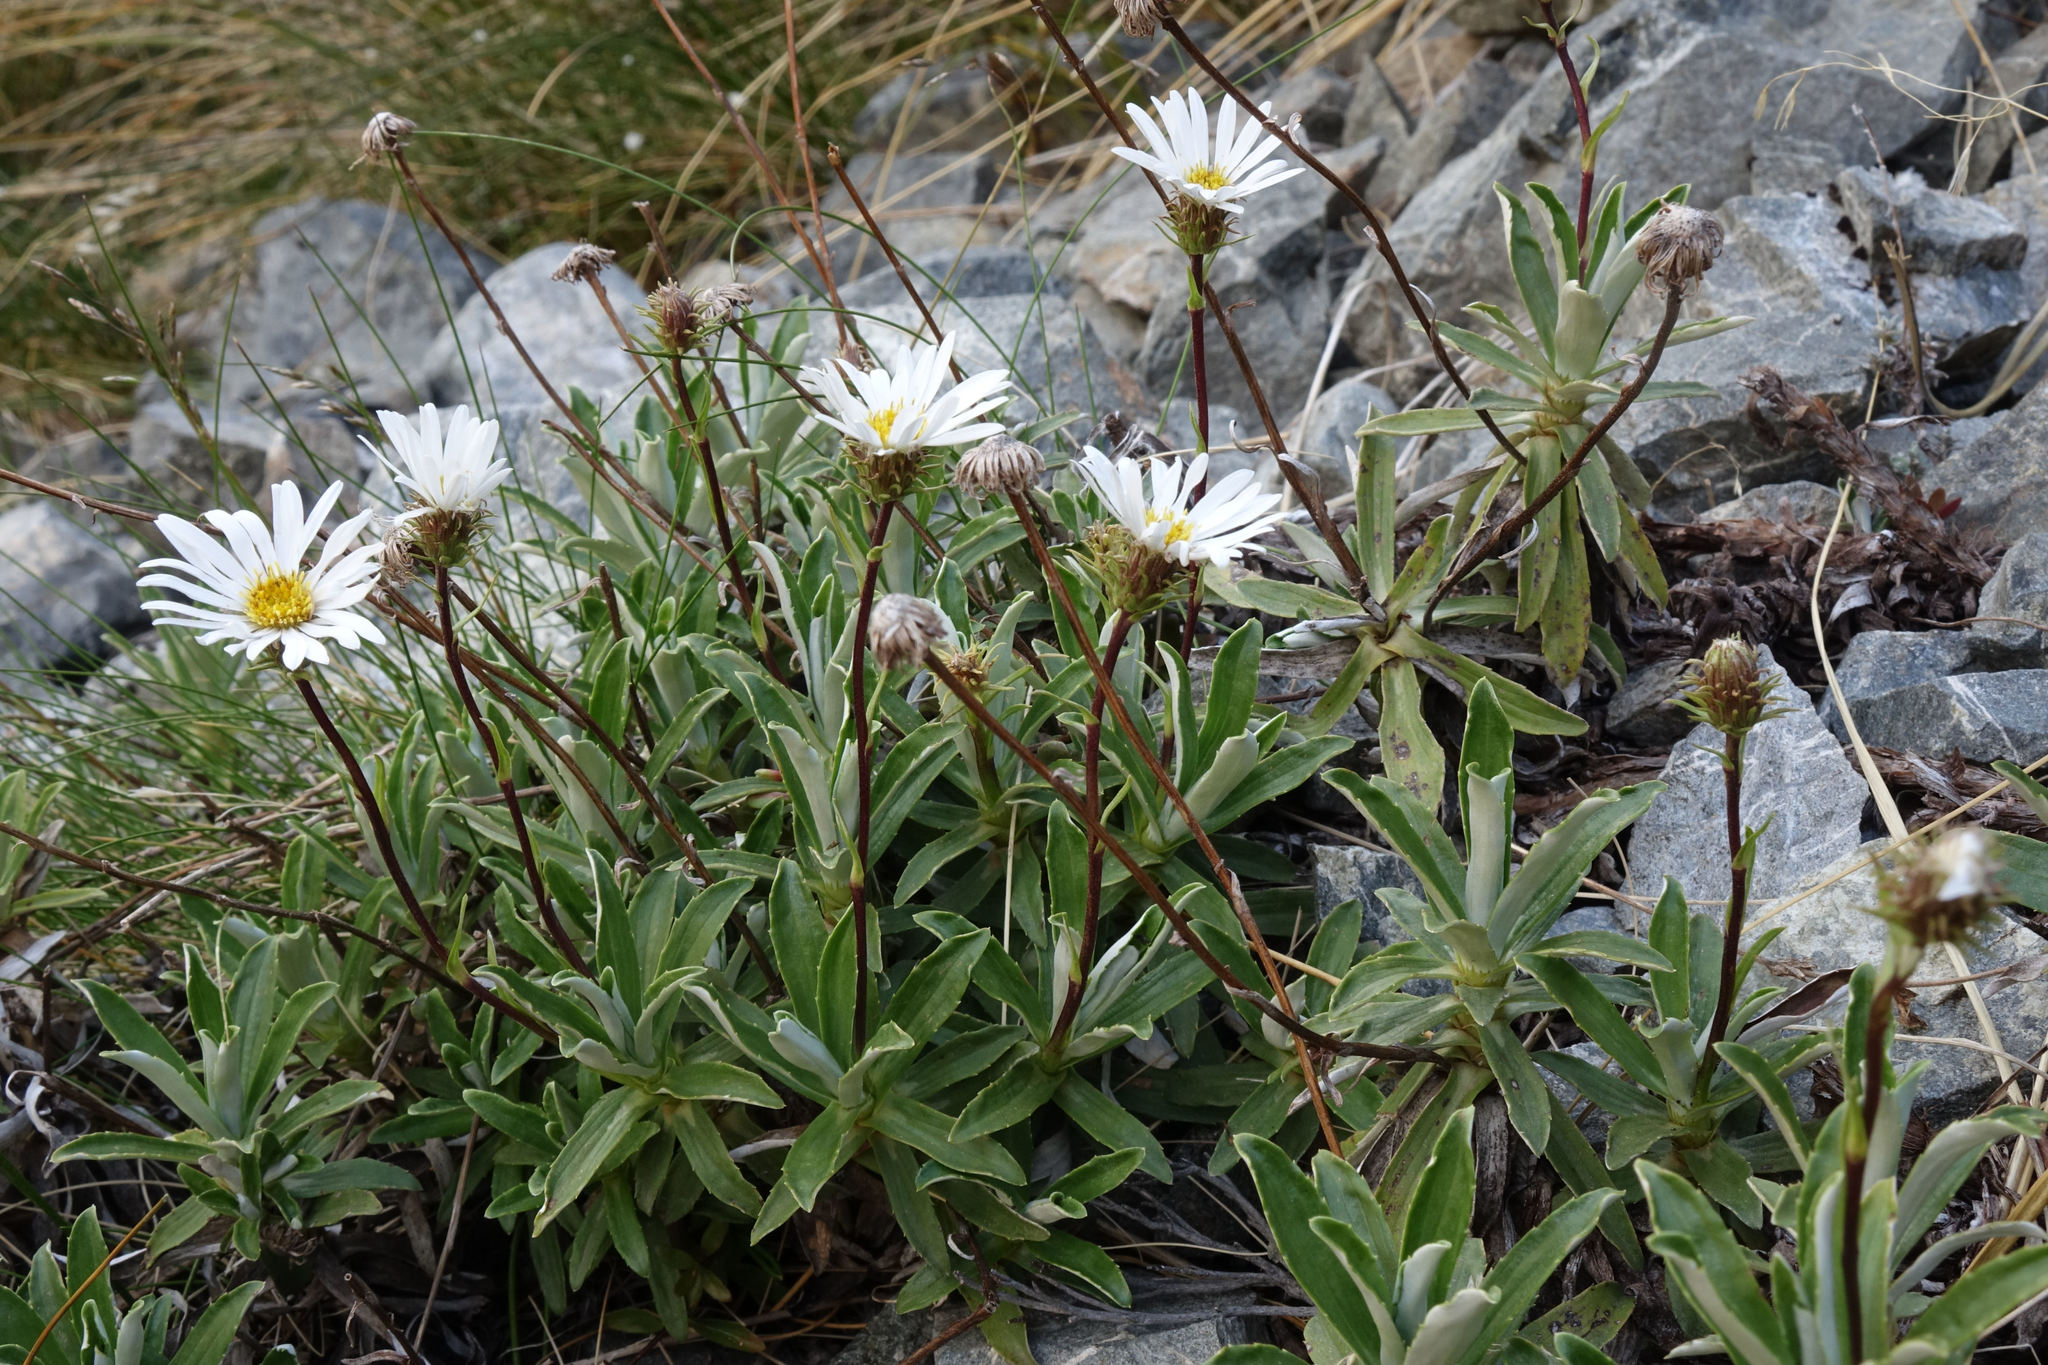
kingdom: Plantae
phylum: Tracheophyta
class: Magnoliopsida
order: Asterales
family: Asteraceae
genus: Celmisia
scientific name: Celmisia angustifolia
